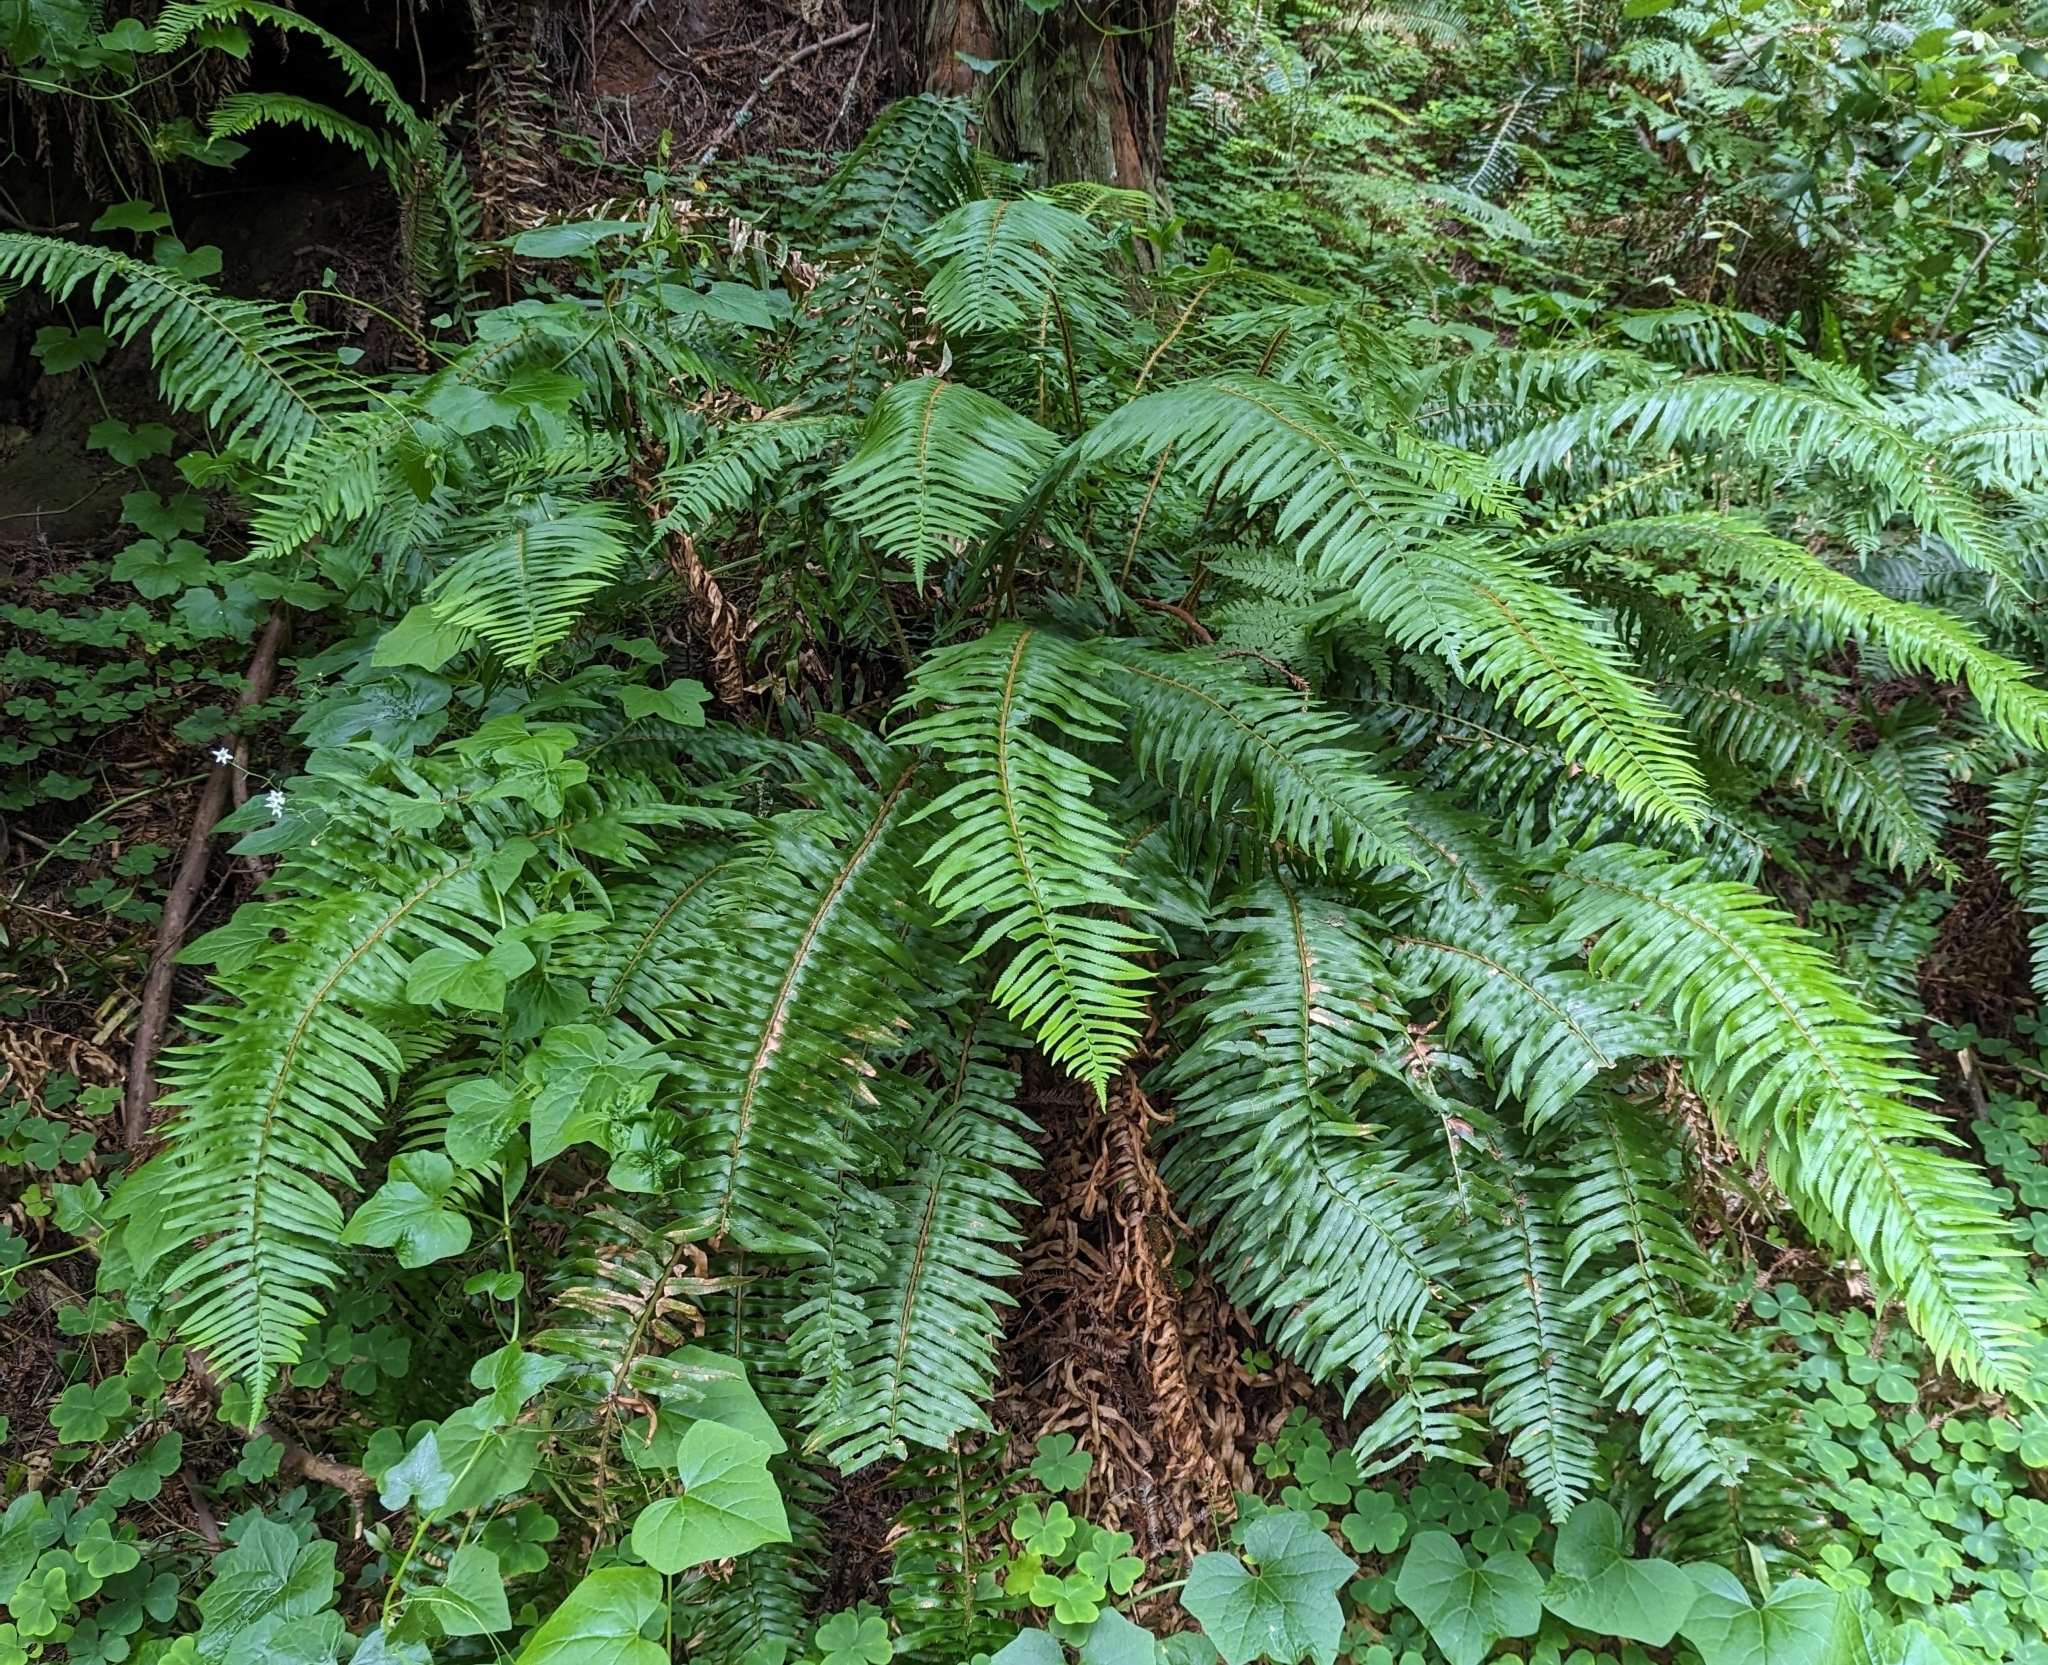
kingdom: Plantae
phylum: Tracheophyta
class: Polypodiopsida
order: Polypodiales
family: Dryopteridaceae
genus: Polystichum
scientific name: Polystichum munitum
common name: Western sword-fern
